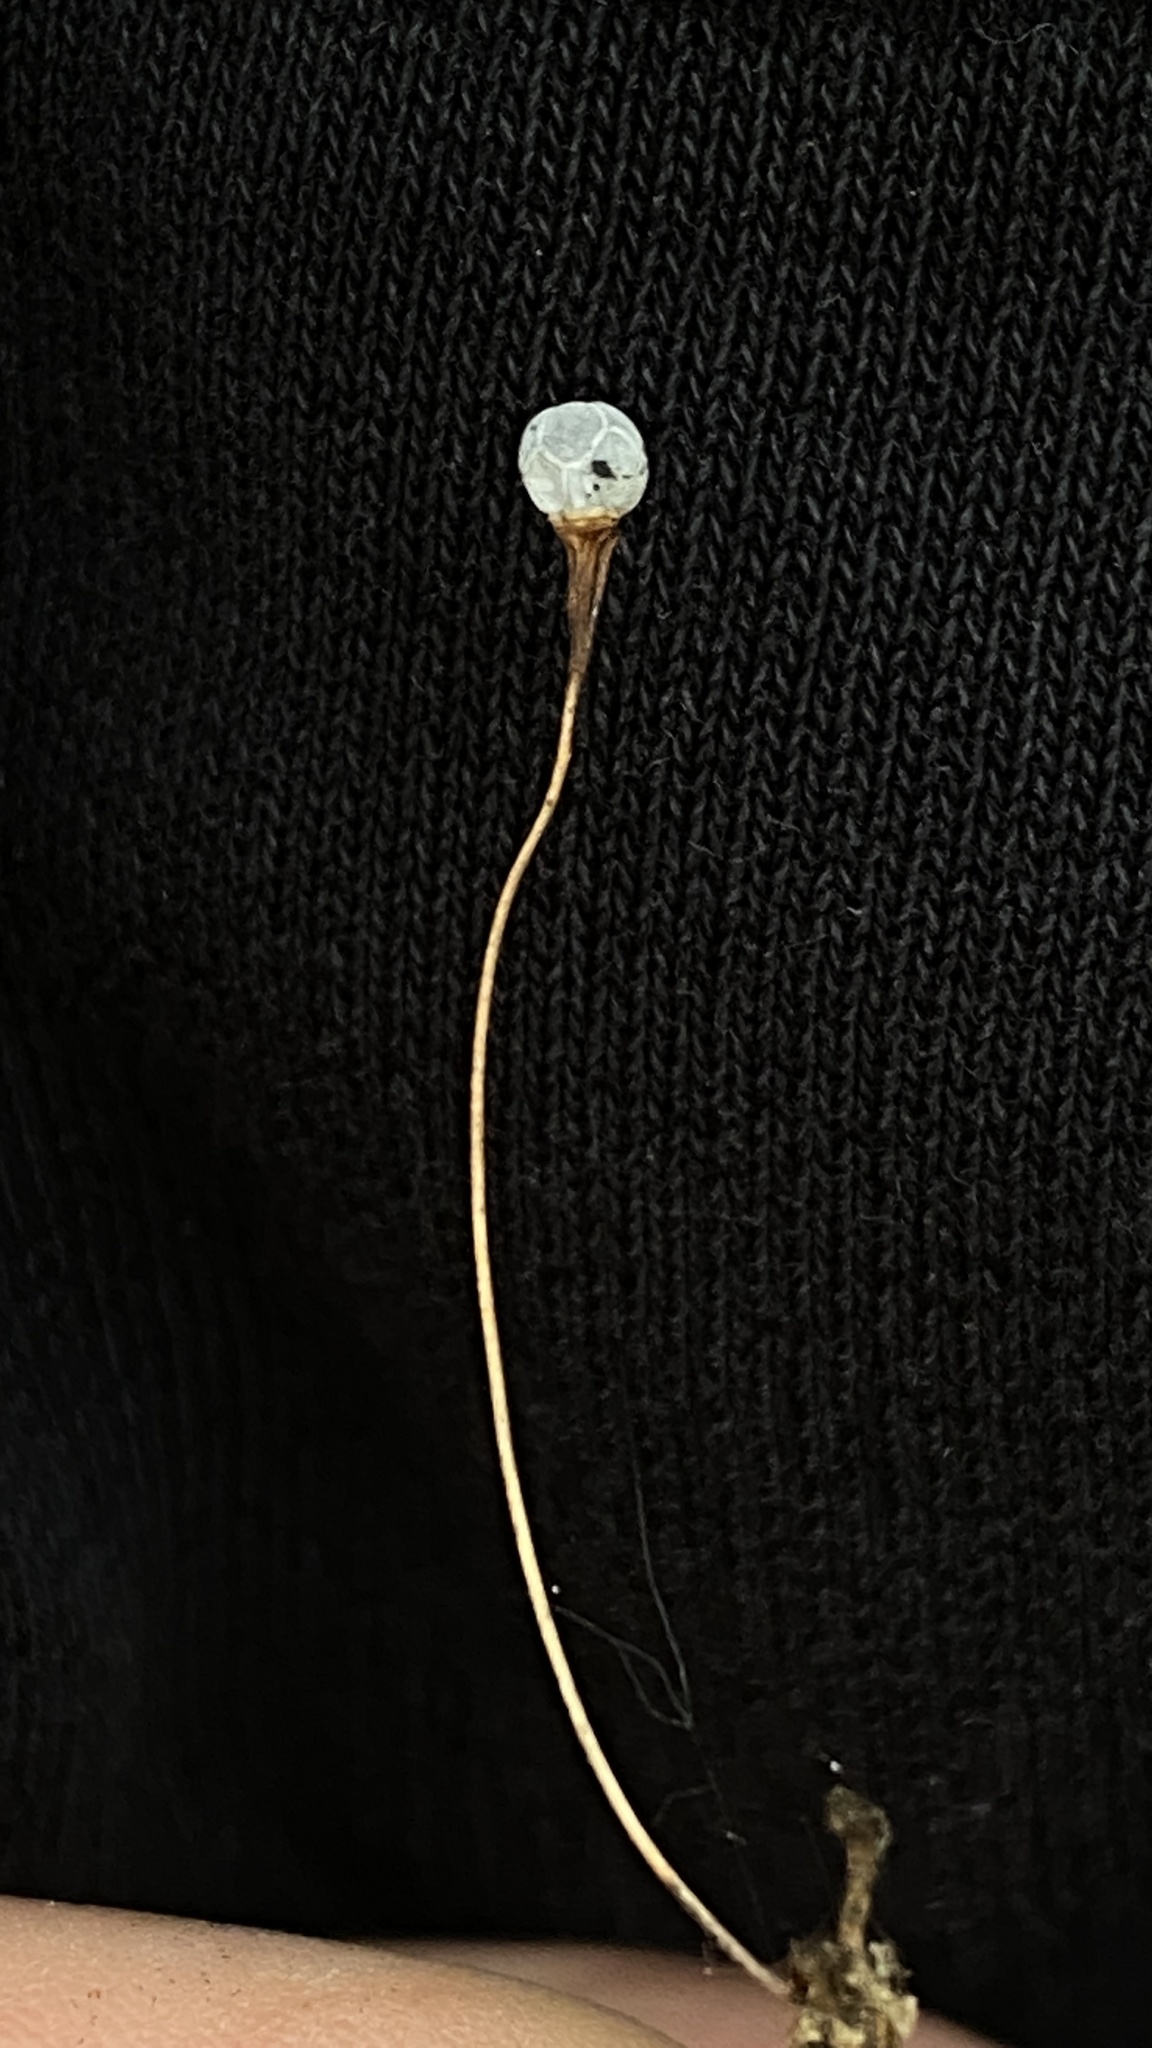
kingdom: Plantae
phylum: Tracheophyta
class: Magnoliopsida
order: Ericales
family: Primulaceae
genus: Lysimachia
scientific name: Lysimachia europaea
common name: Arctic starflower
